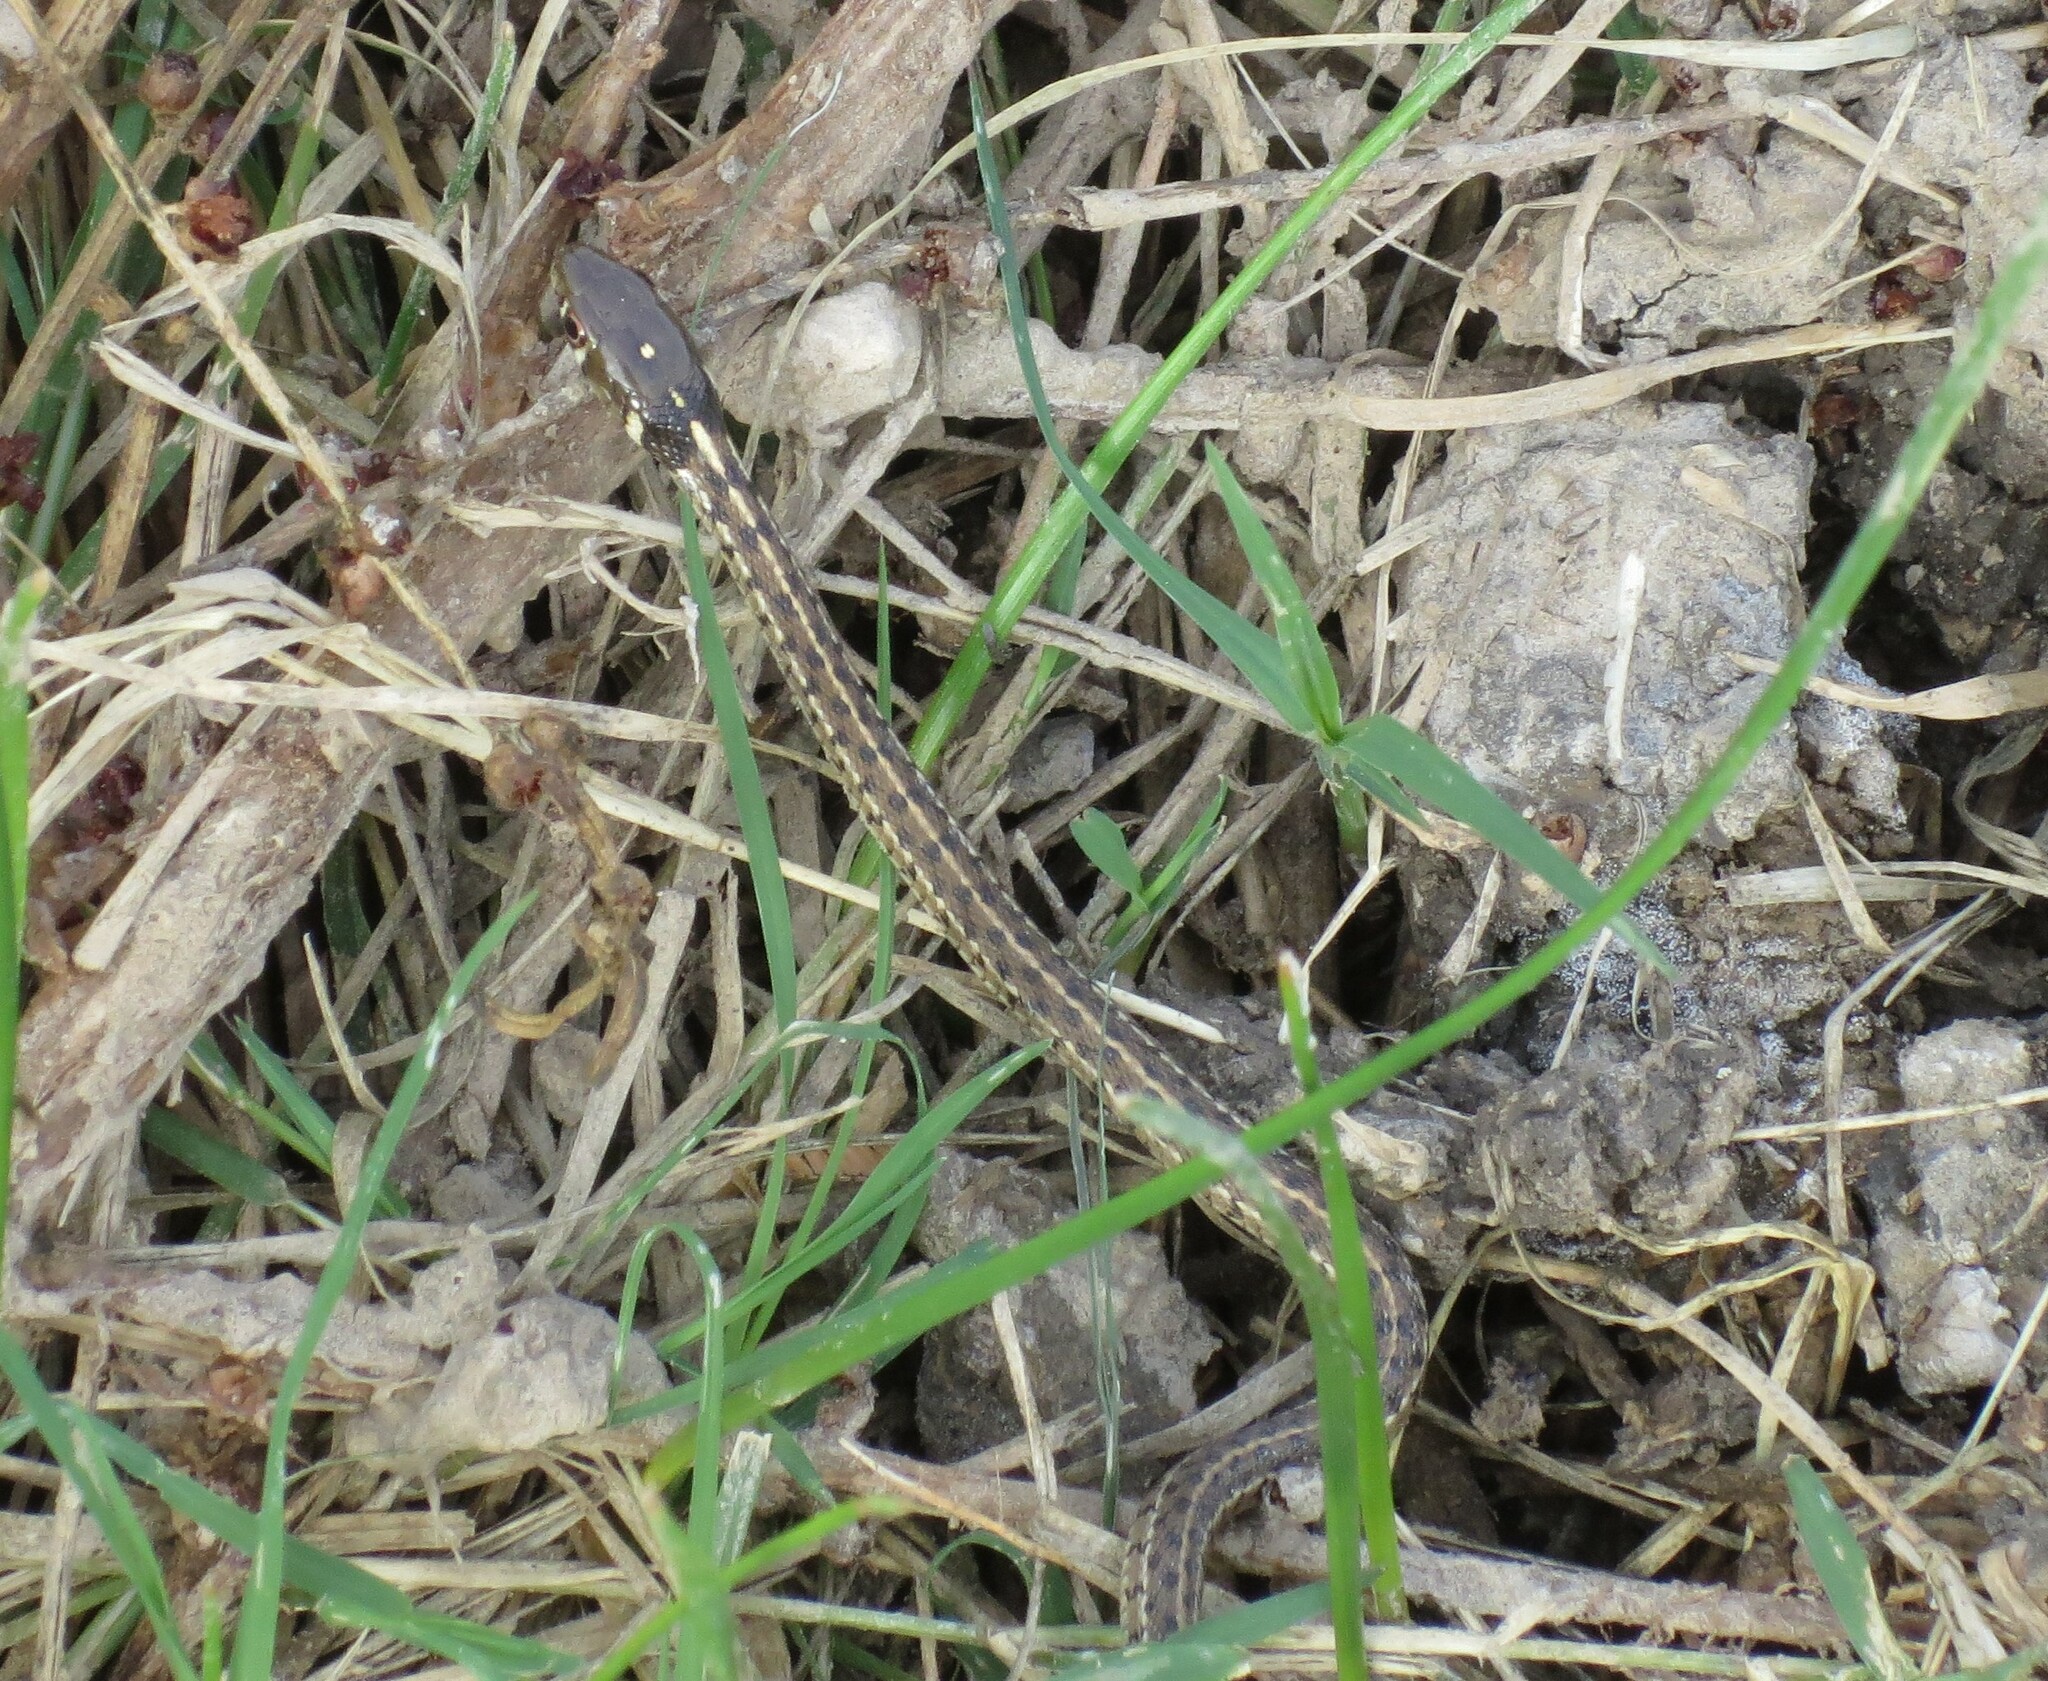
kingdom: Animalia
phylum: Chordata
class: Squamata
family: Colubridae
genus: Thamnophis
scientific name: Thamnophis marcianus
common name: Checkered garter snake
